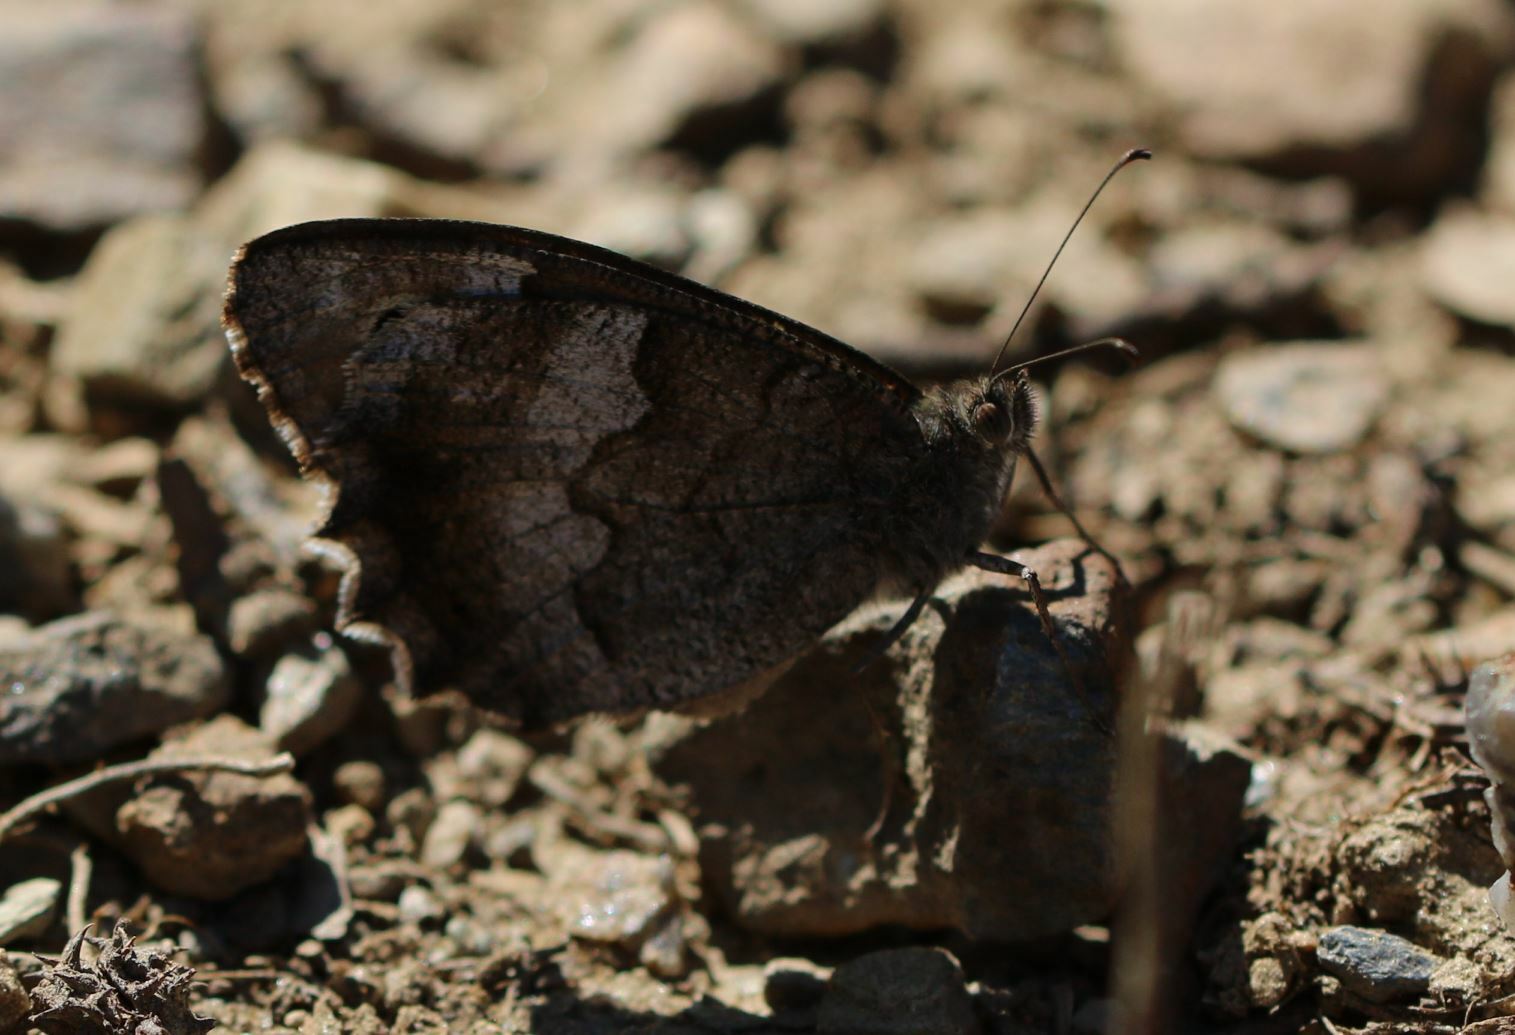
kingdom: Animalia
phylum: Arthropoda
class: Insecta
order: Lepidoptera
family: Nymphalidae
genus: Hipparchia
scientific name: Hipparchia statilinus
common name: Tree grayling
